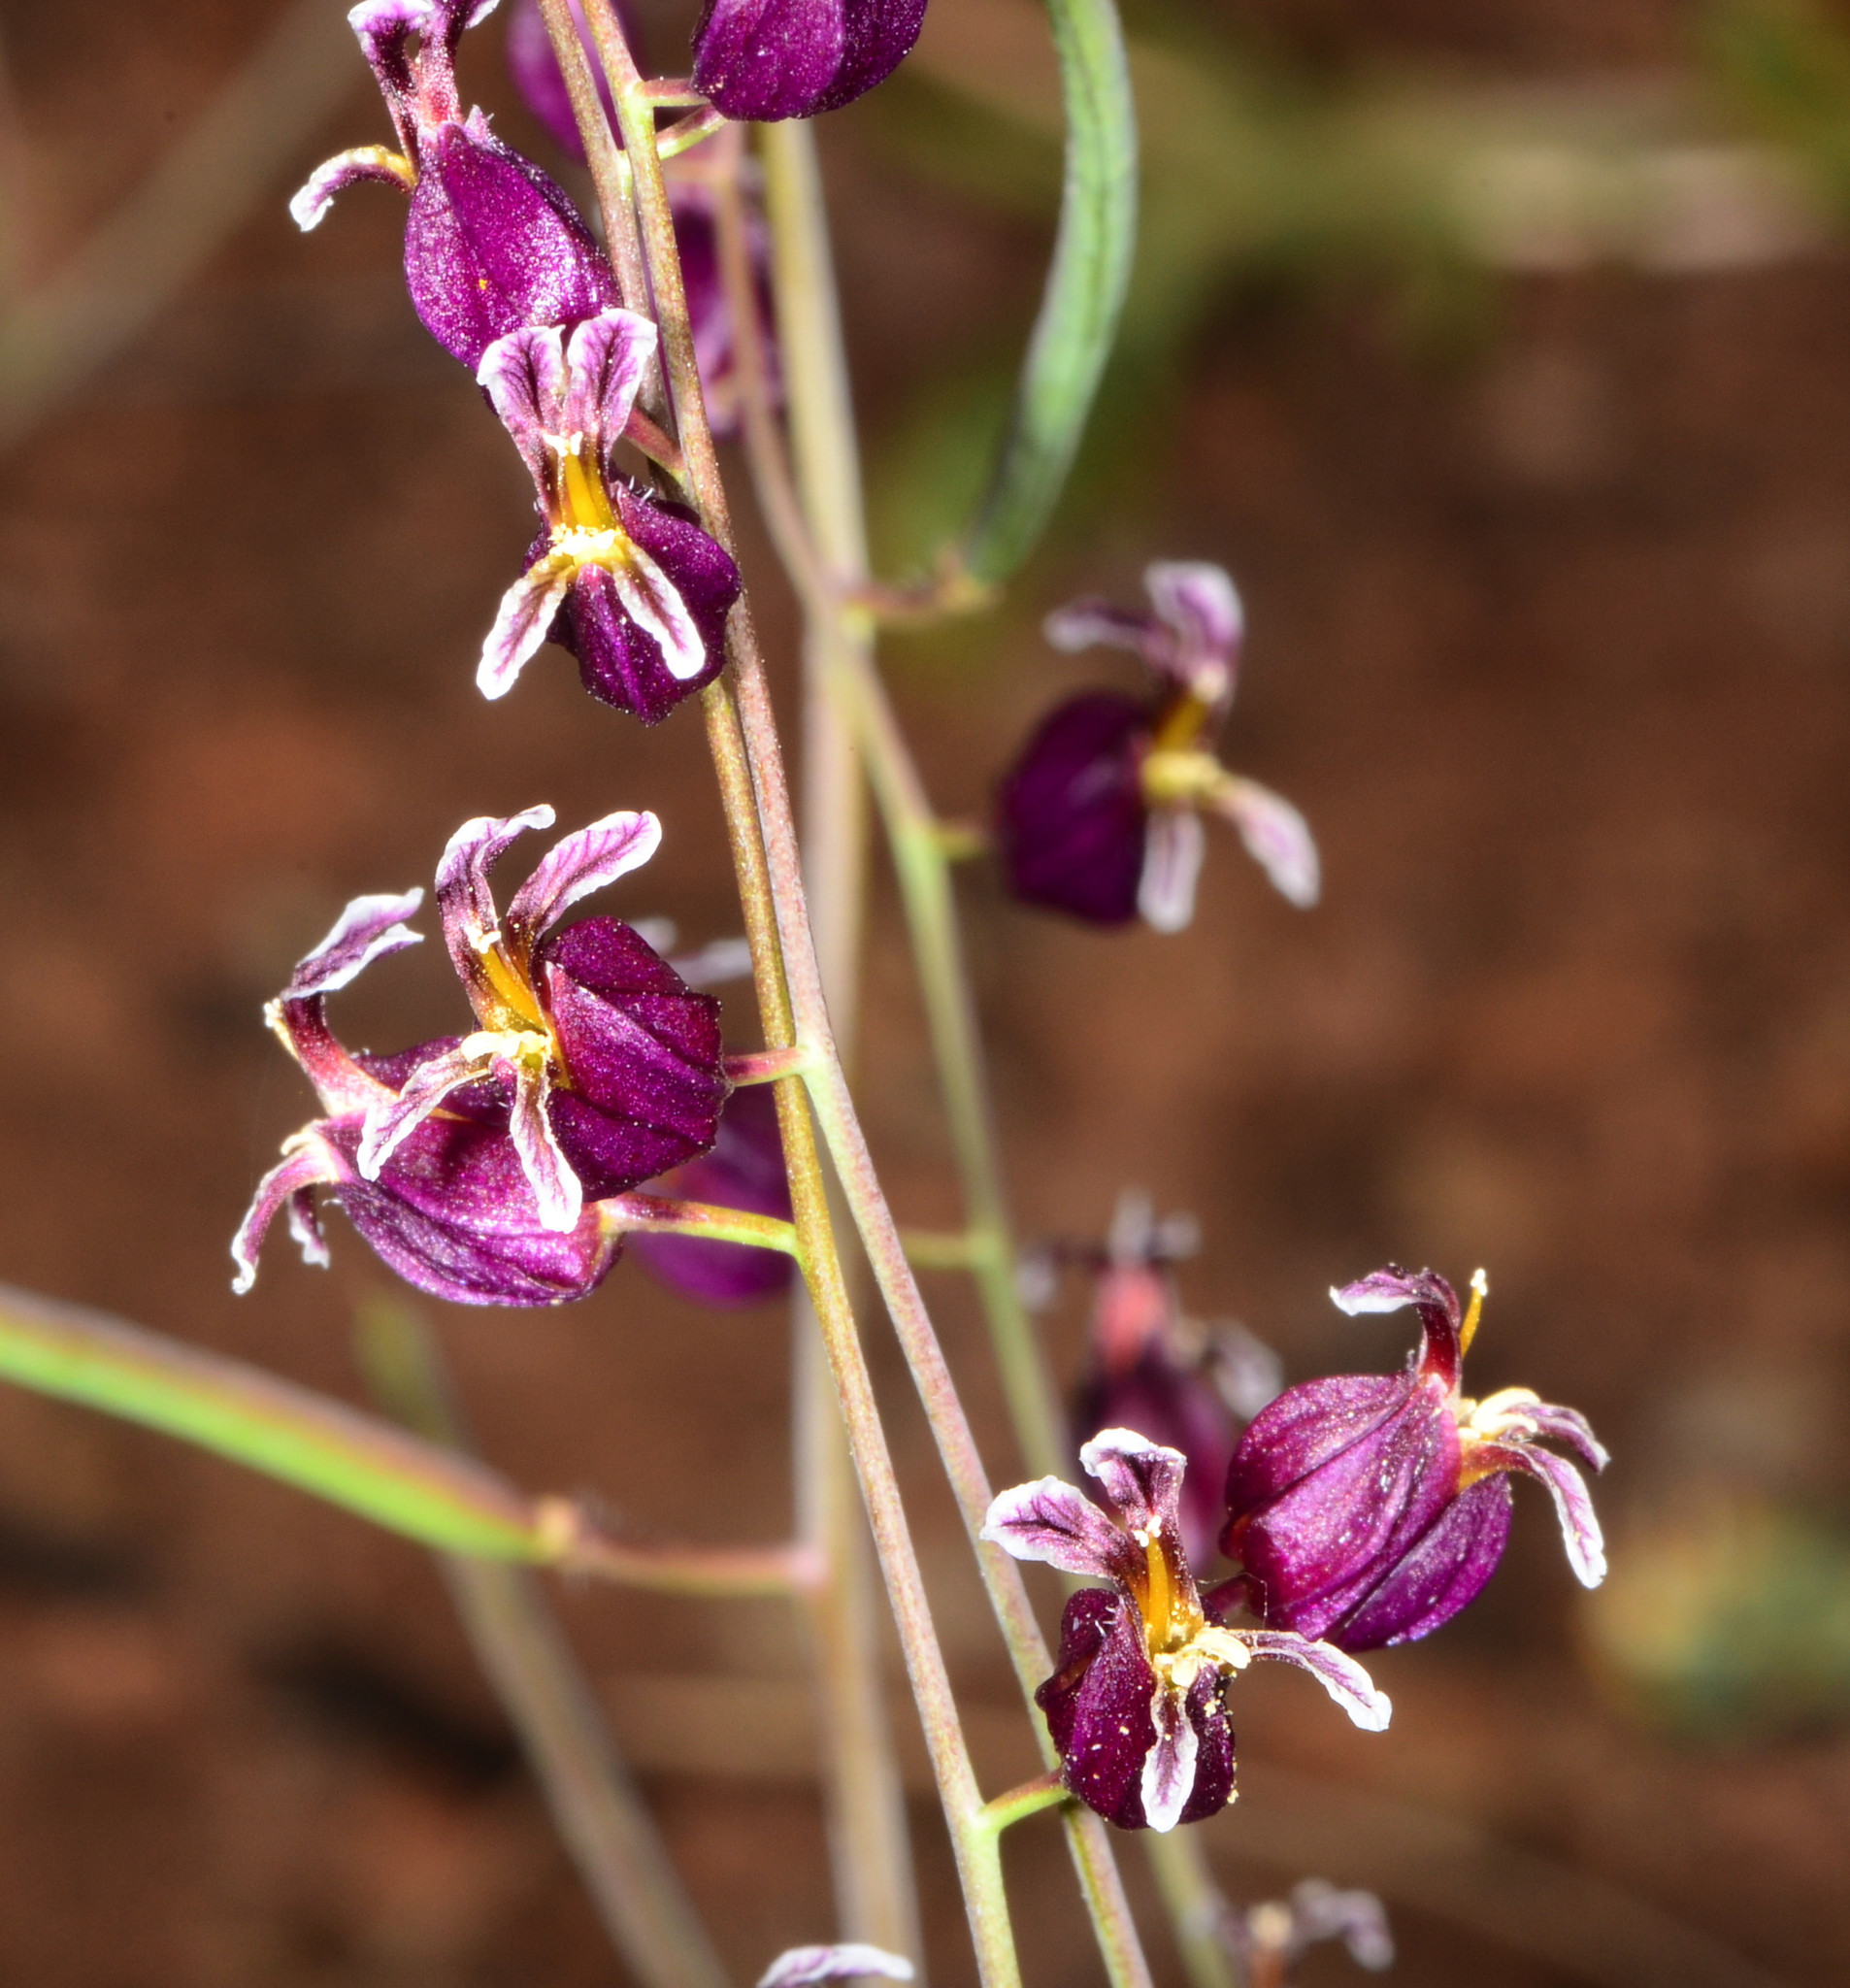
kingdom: Plantae
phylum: Tracheophyta
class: Magnoliopsida
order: Brassicales
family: Brassicaceae
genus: Streptanthus
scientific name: Streptanthus glandulosus
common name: Jewel-flower
